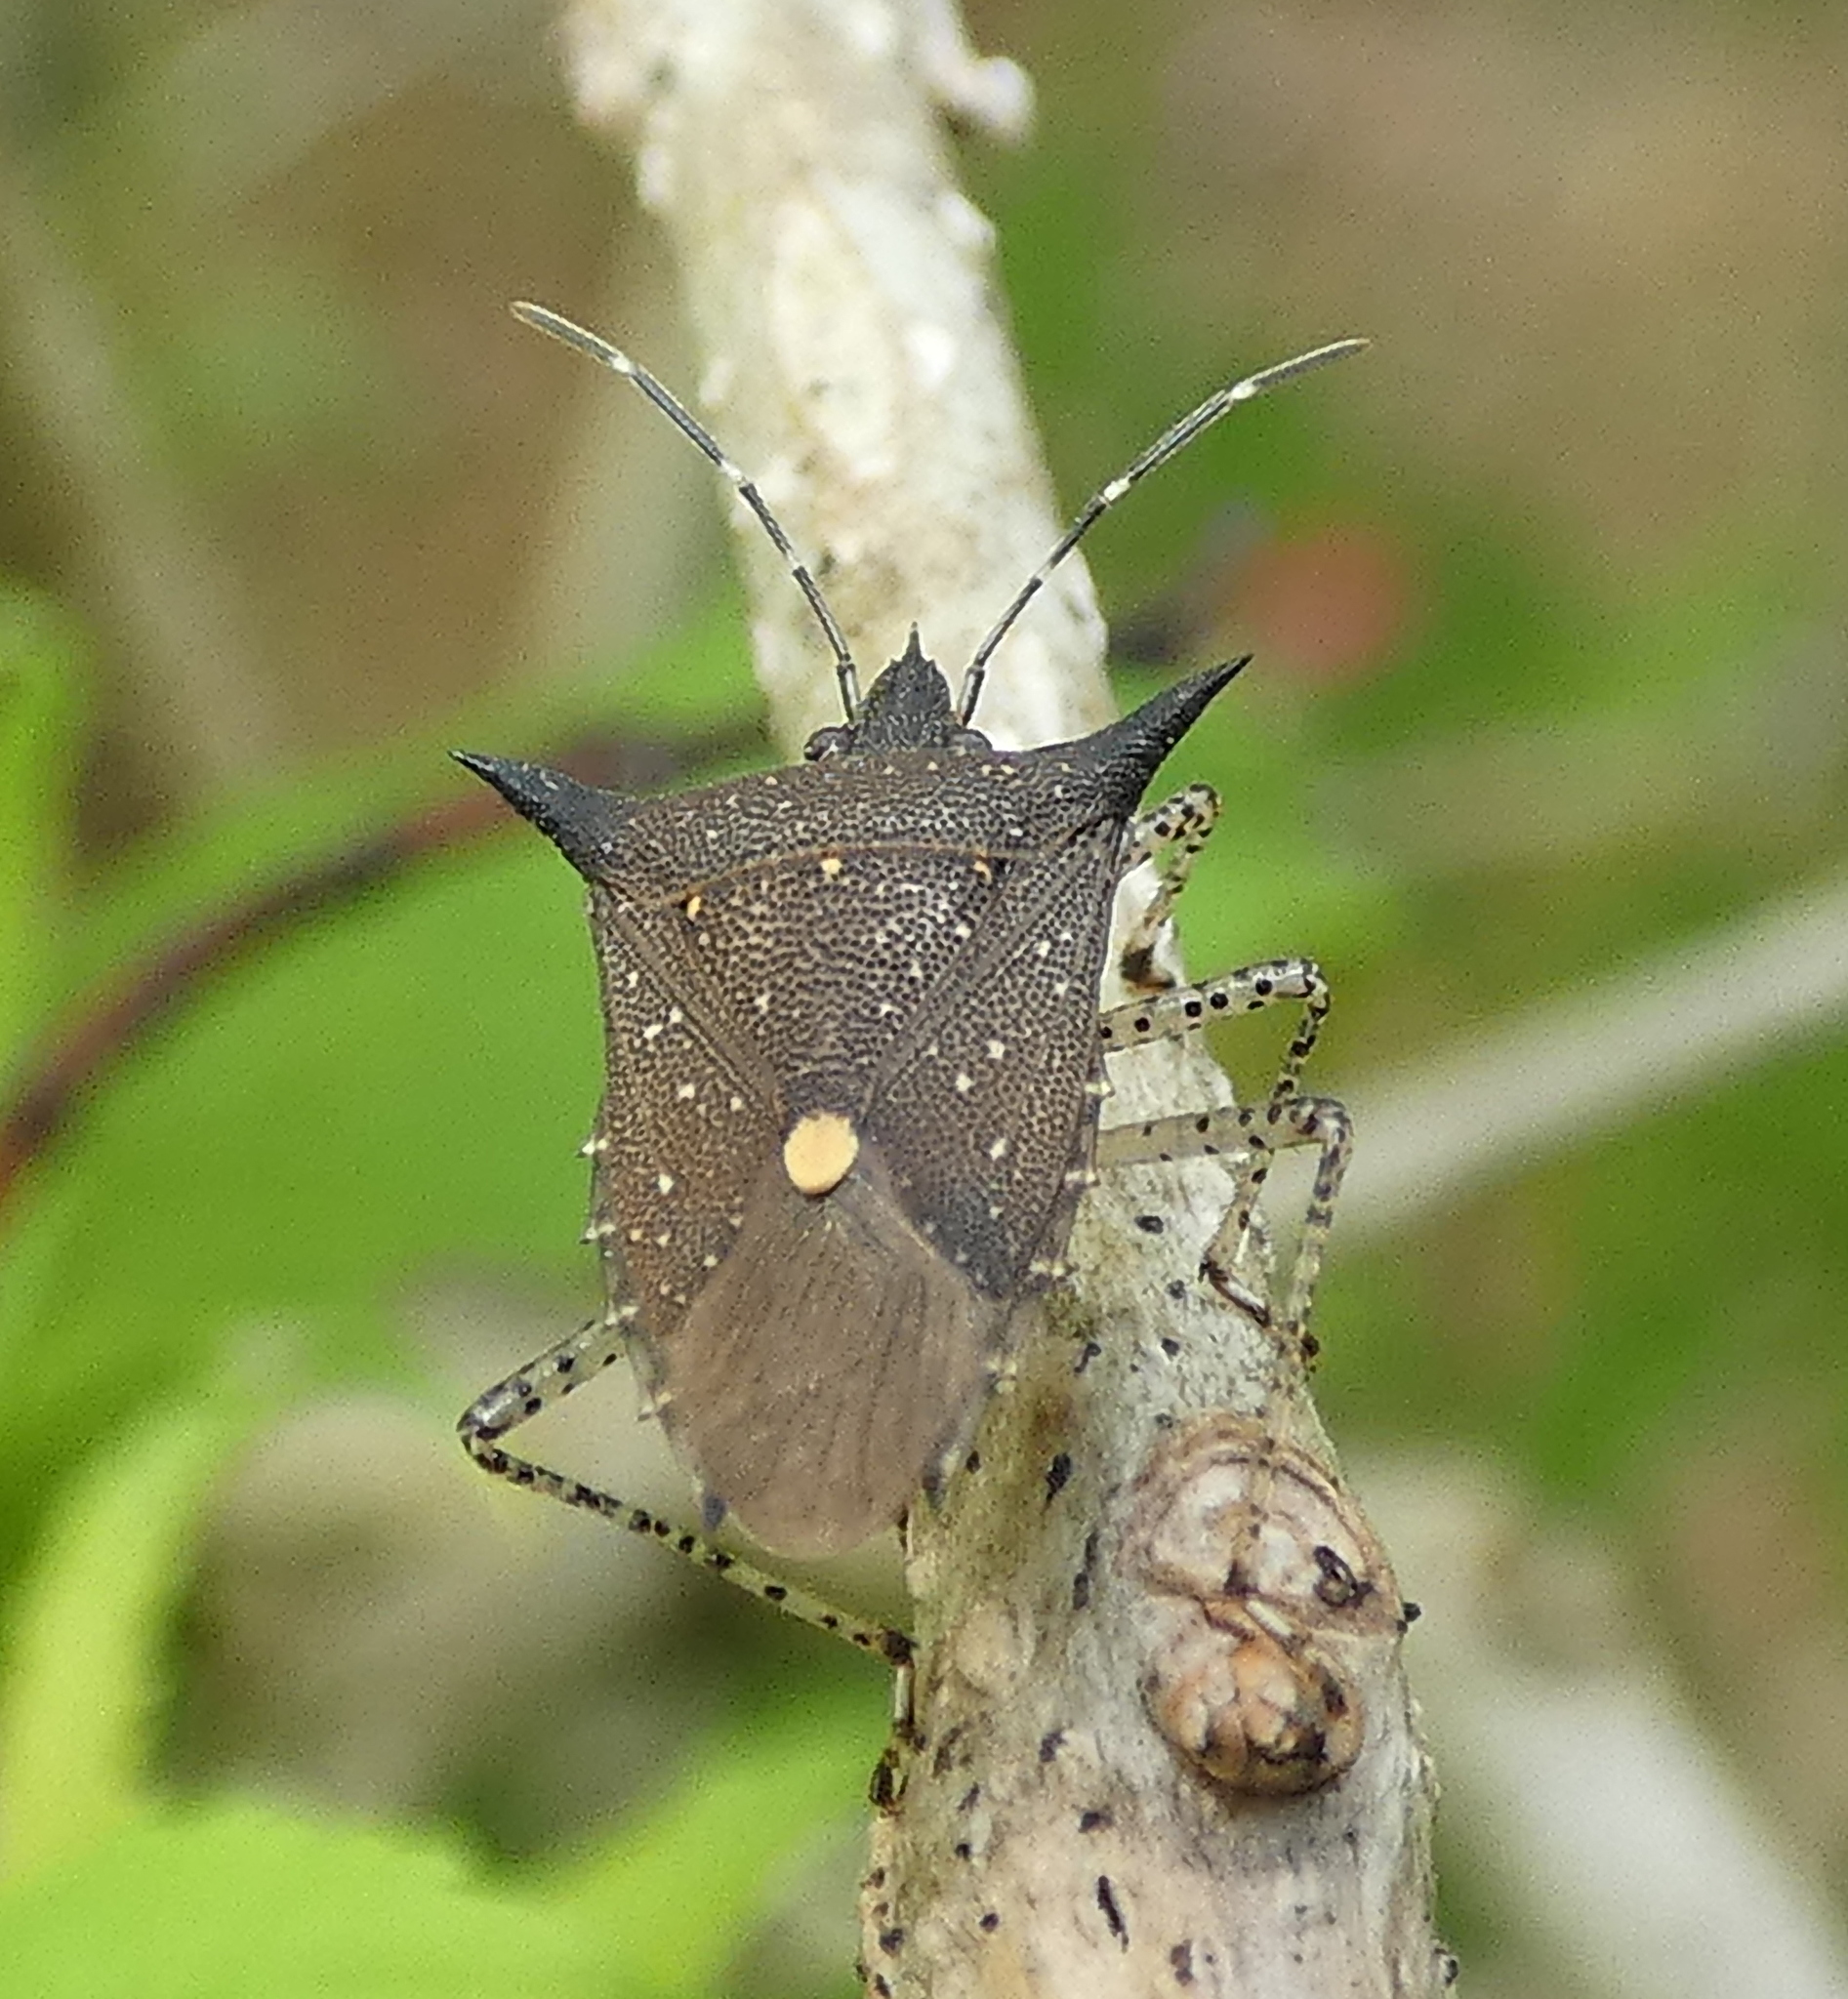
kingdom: Animalia
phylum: Arthropoda
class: Insecta
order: Hemiptera
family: Pentatomidae
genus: Proxys
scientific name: Proxys albopunctulatus
